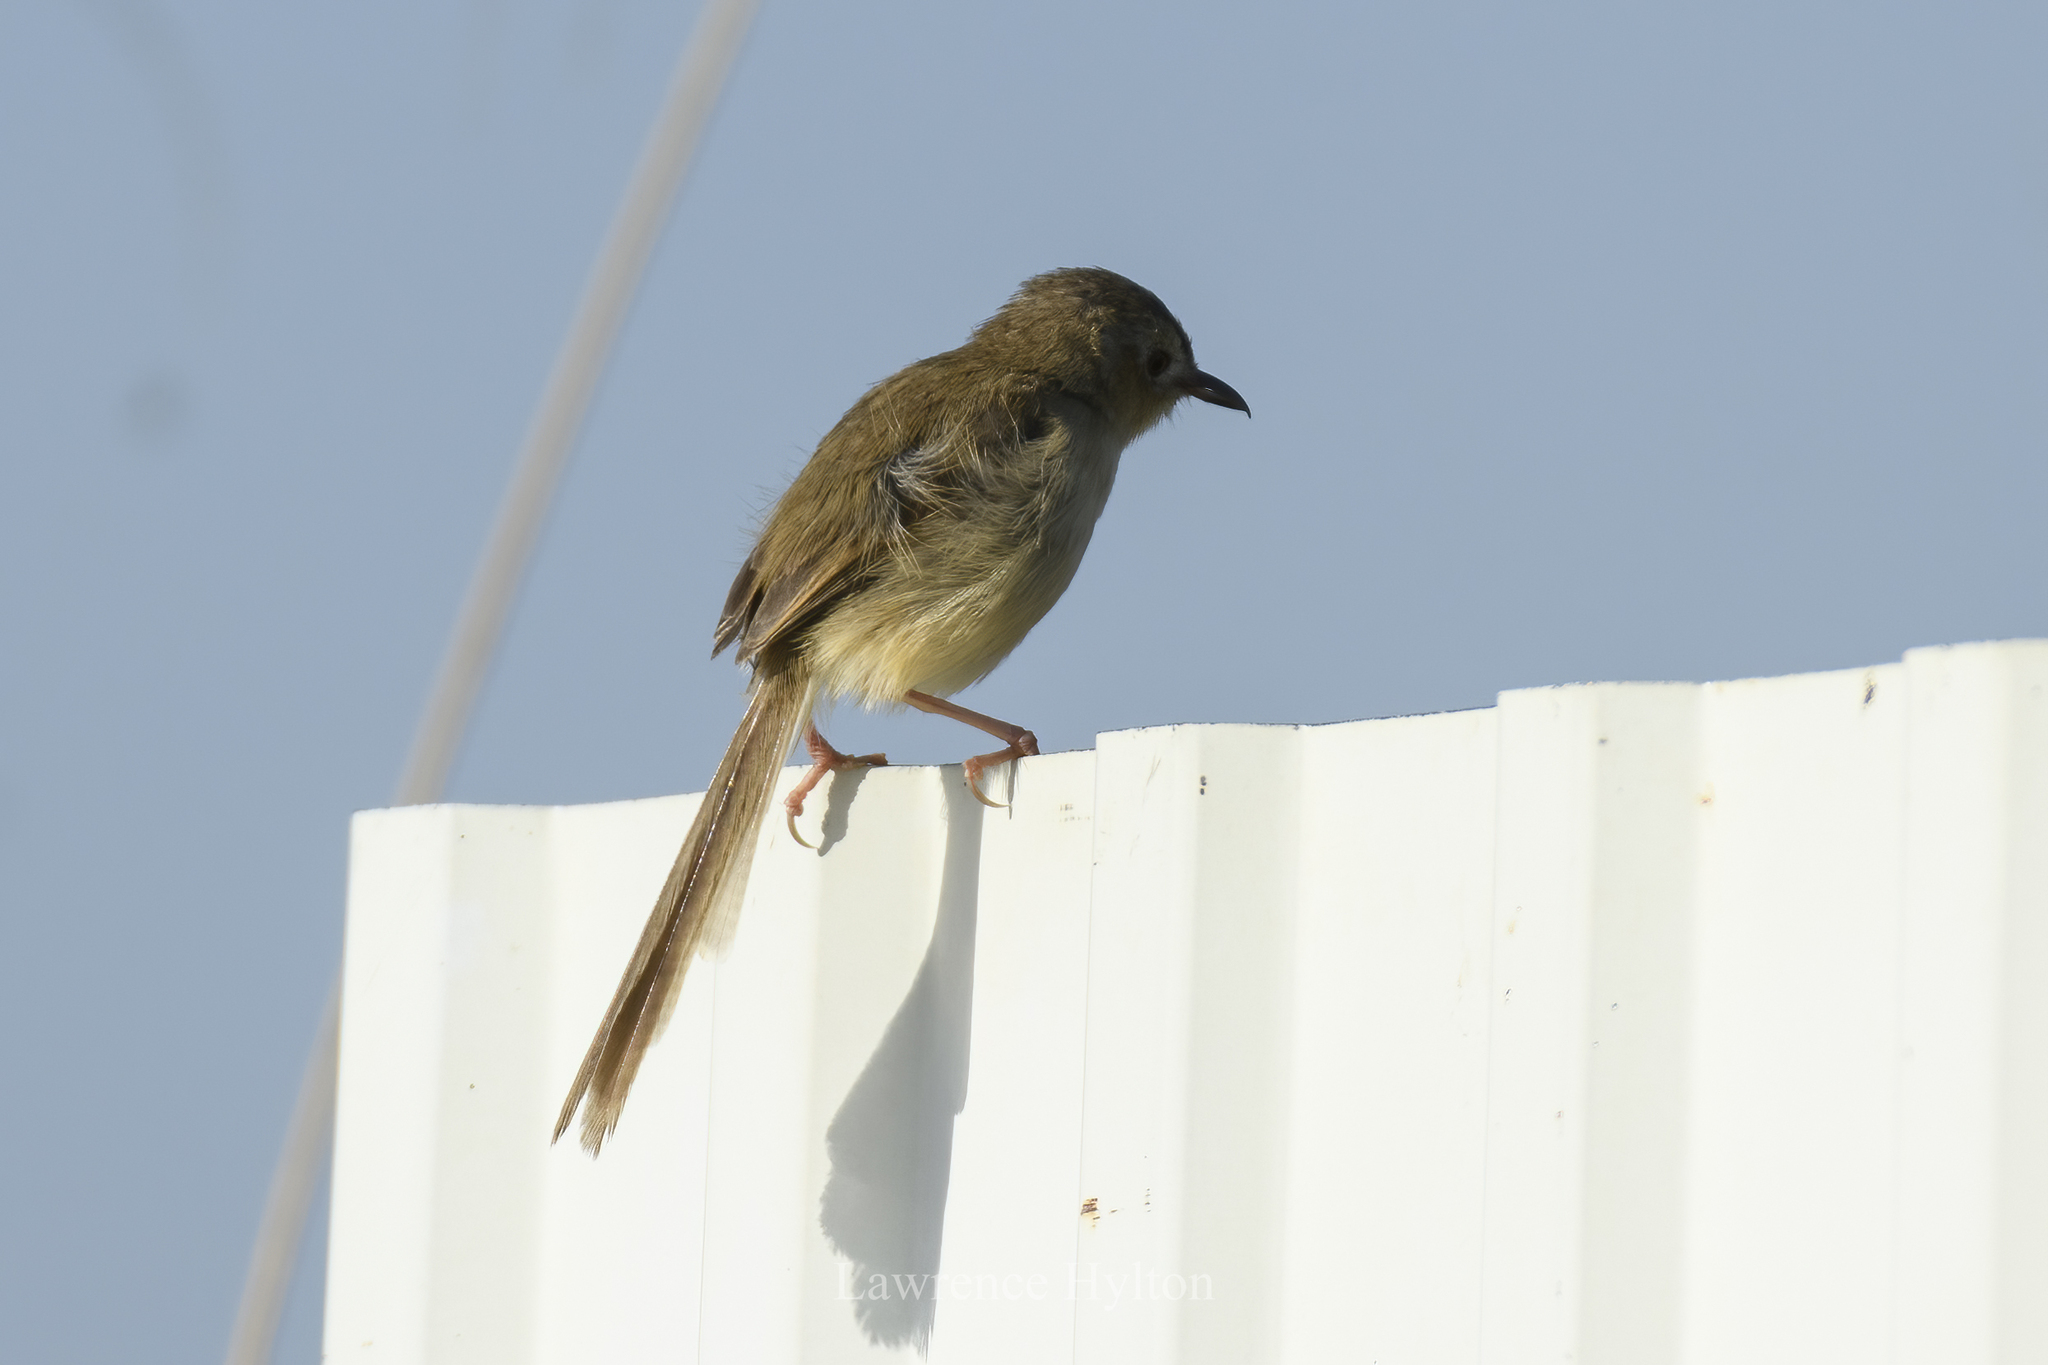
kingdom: Animalia
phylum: Chordata
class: Aves
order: Passeriformes
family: Cisticolidae
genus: Prinia
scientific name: Prinia inornata
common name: Plain prinia
